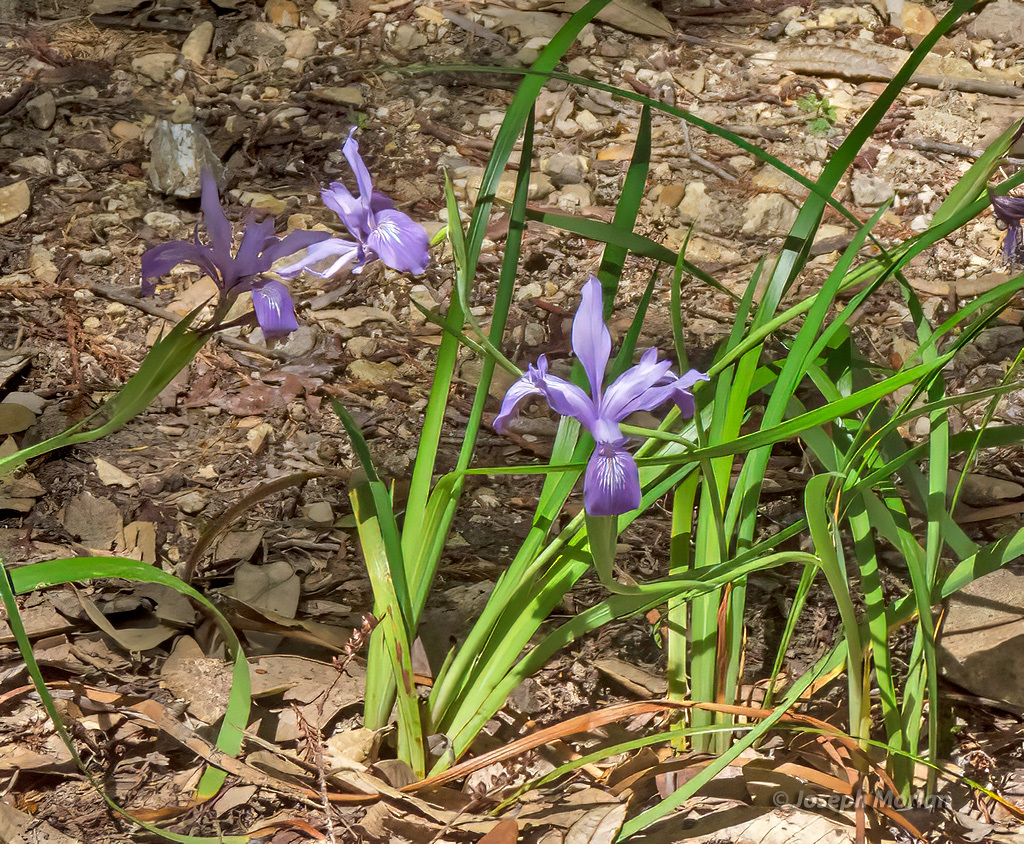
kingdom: Plantae
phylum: Tracheophyta
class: Liliopsida
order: Asparagales
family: Iridaceae
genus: Iris
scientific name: Iris douglasiana
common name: Marin iris
